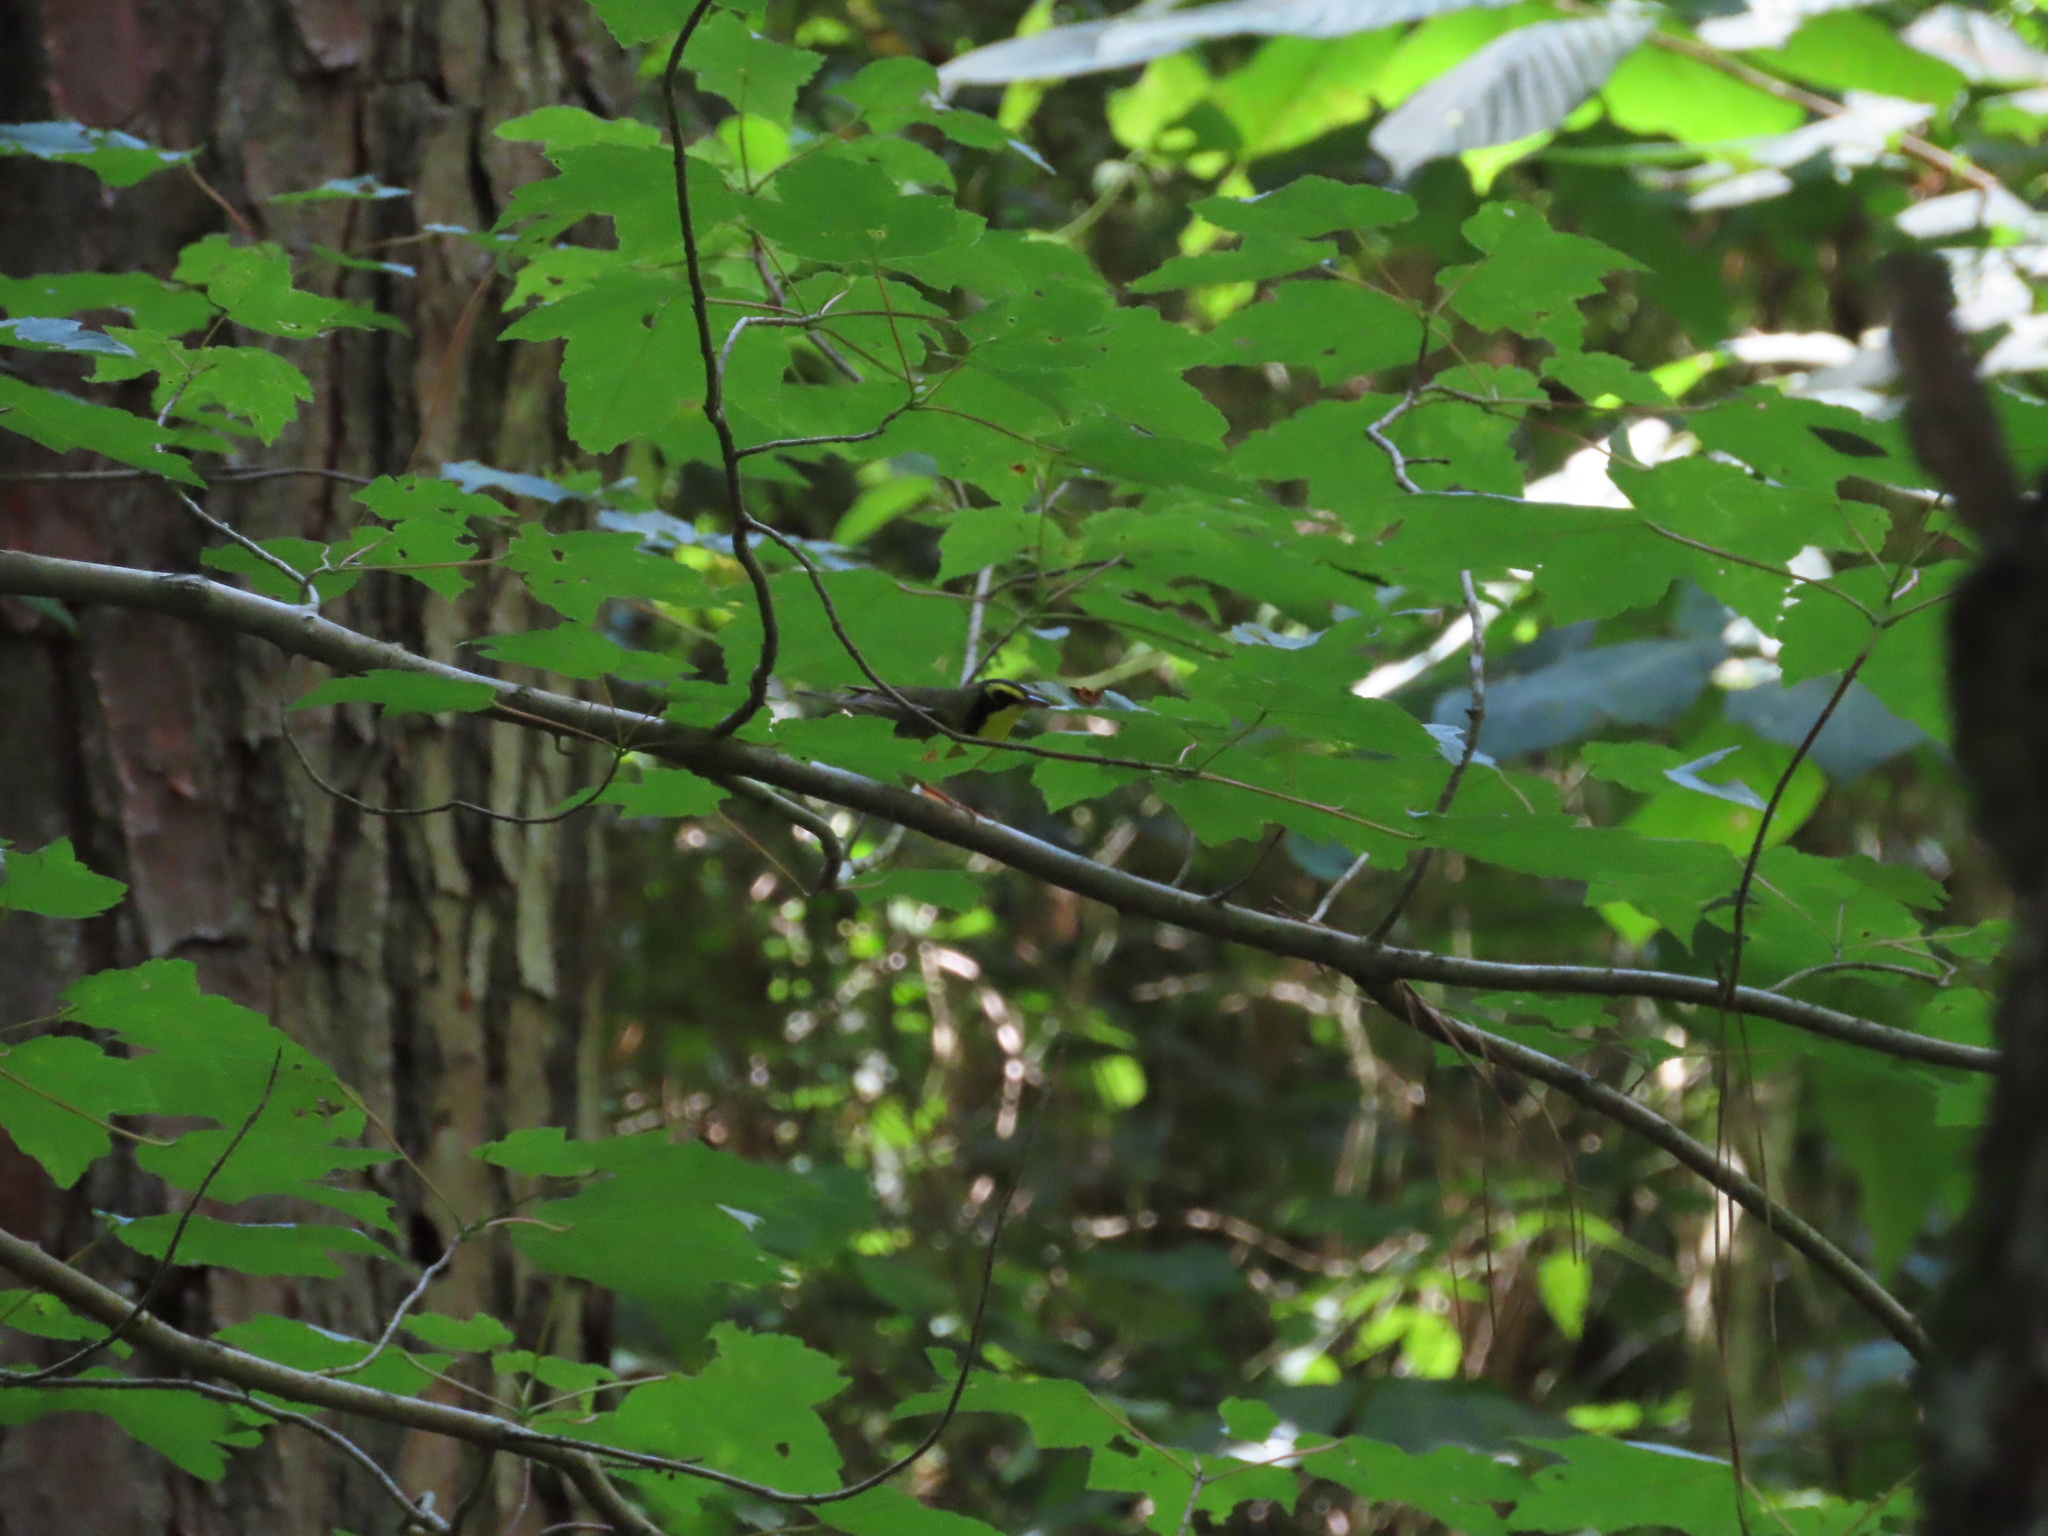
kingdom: Animalia
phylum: Chordata
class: Aves
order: Passeriformes
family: Parulidae
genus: Geothlypis
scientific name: Geothlypis formosa
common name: Kentucky warbler
